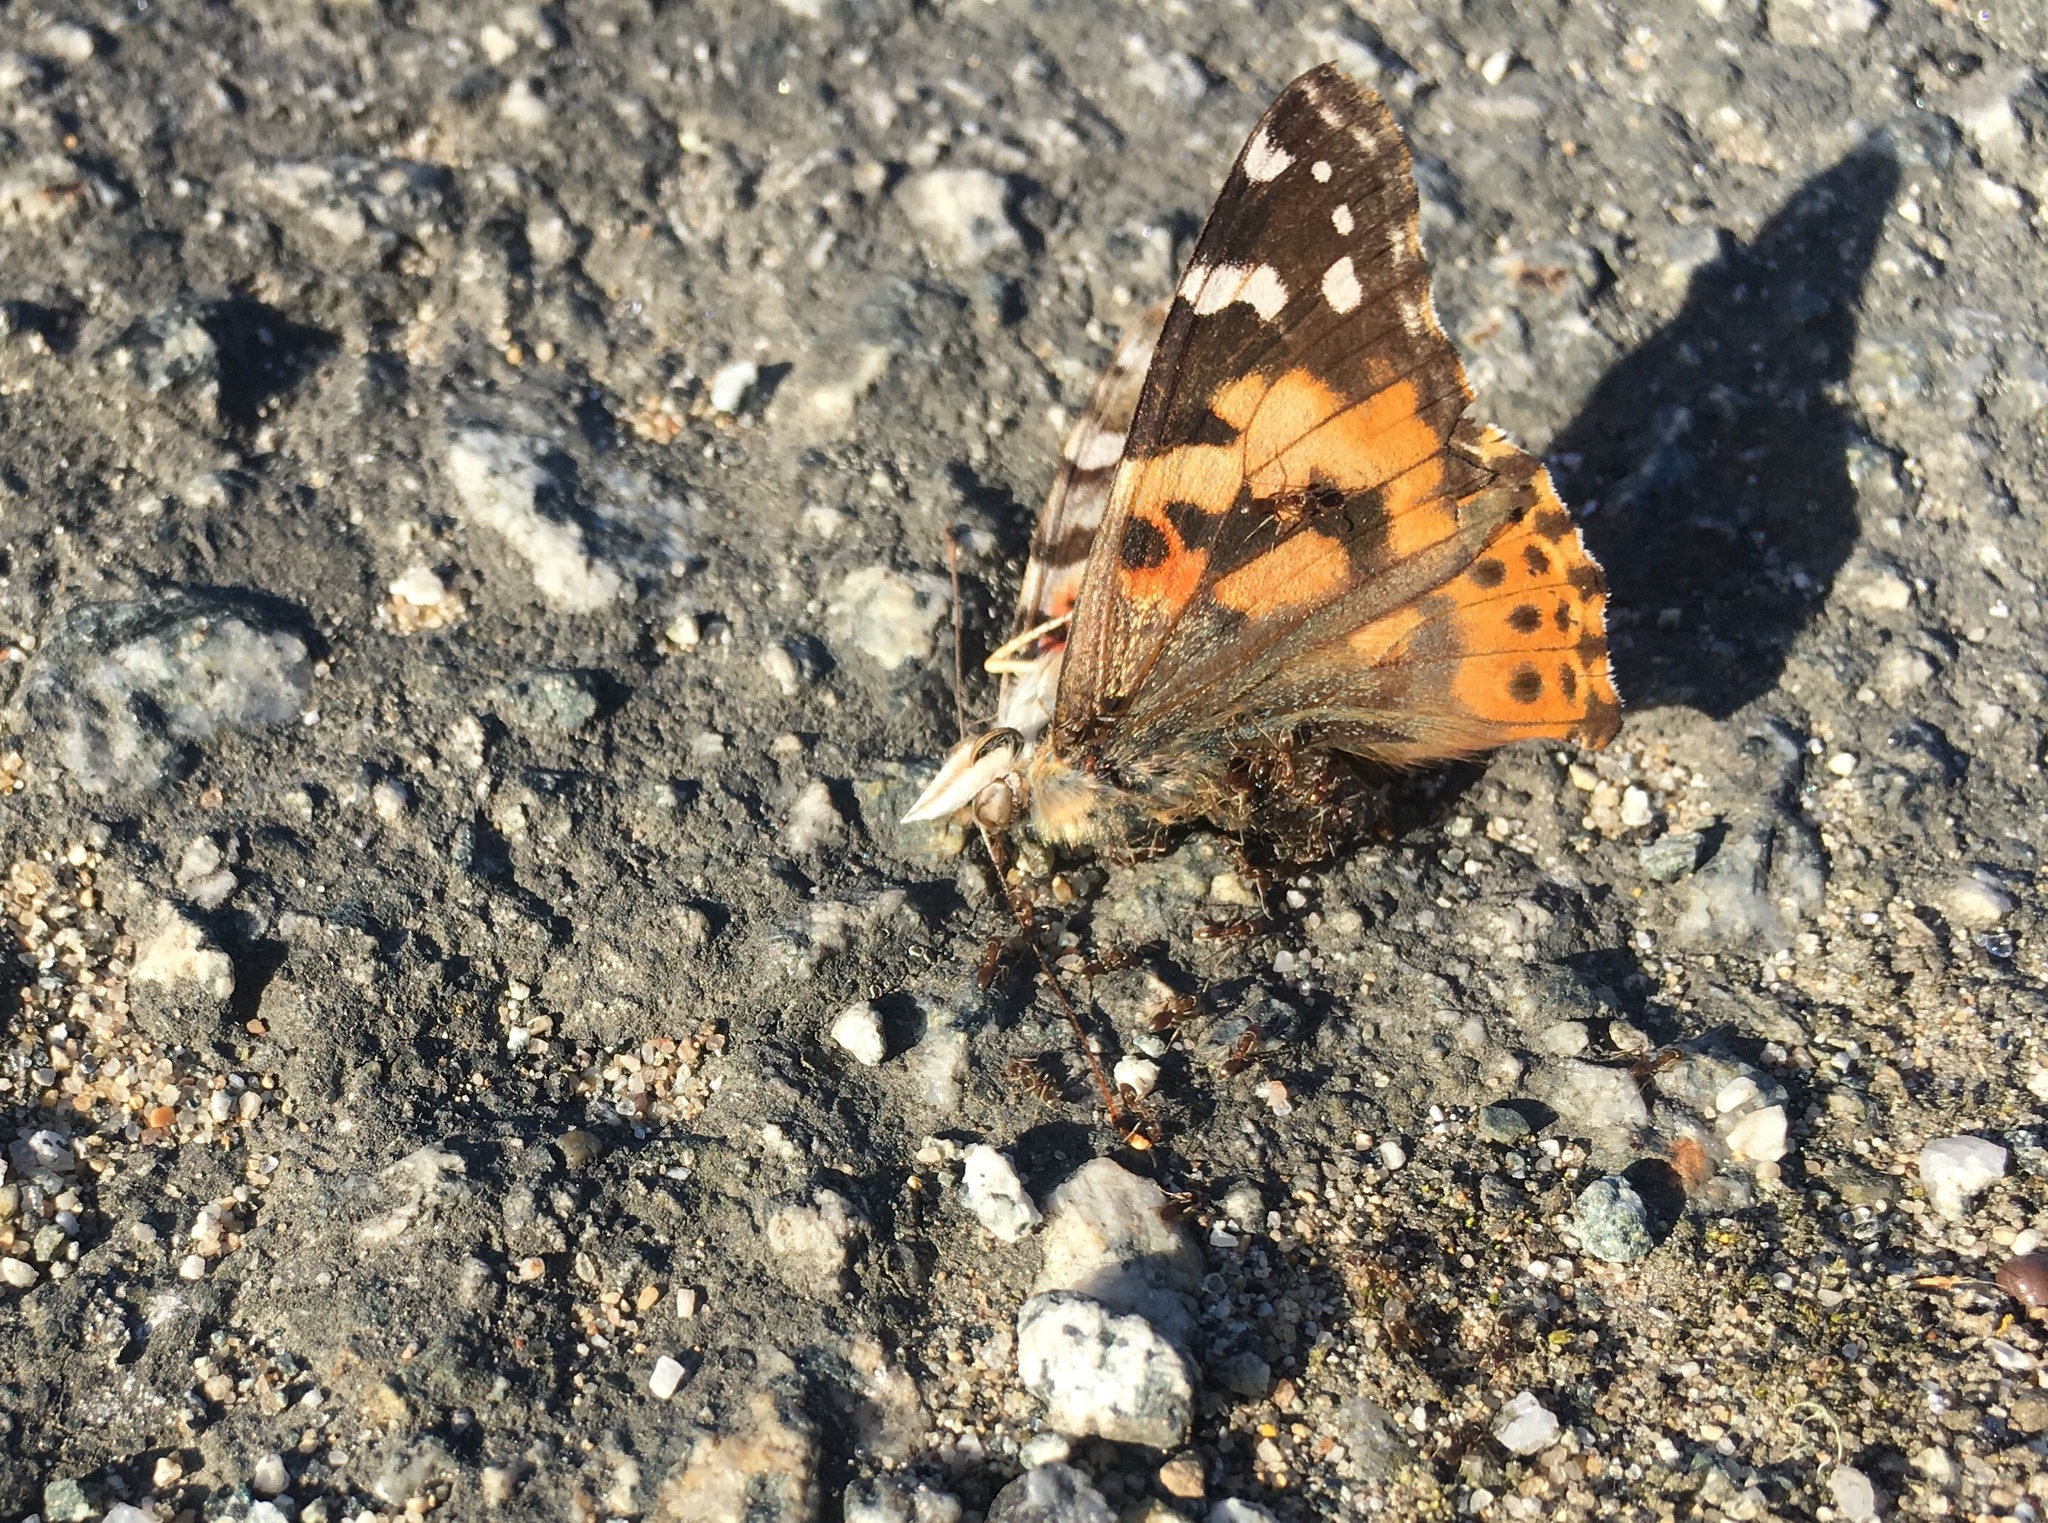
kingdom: Animalia
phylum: Arthropoda
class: Insecta
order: Lepidoptera
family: Nymphalidae
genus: Vanessa
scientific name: Vanessa cardui
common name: Painted lady
